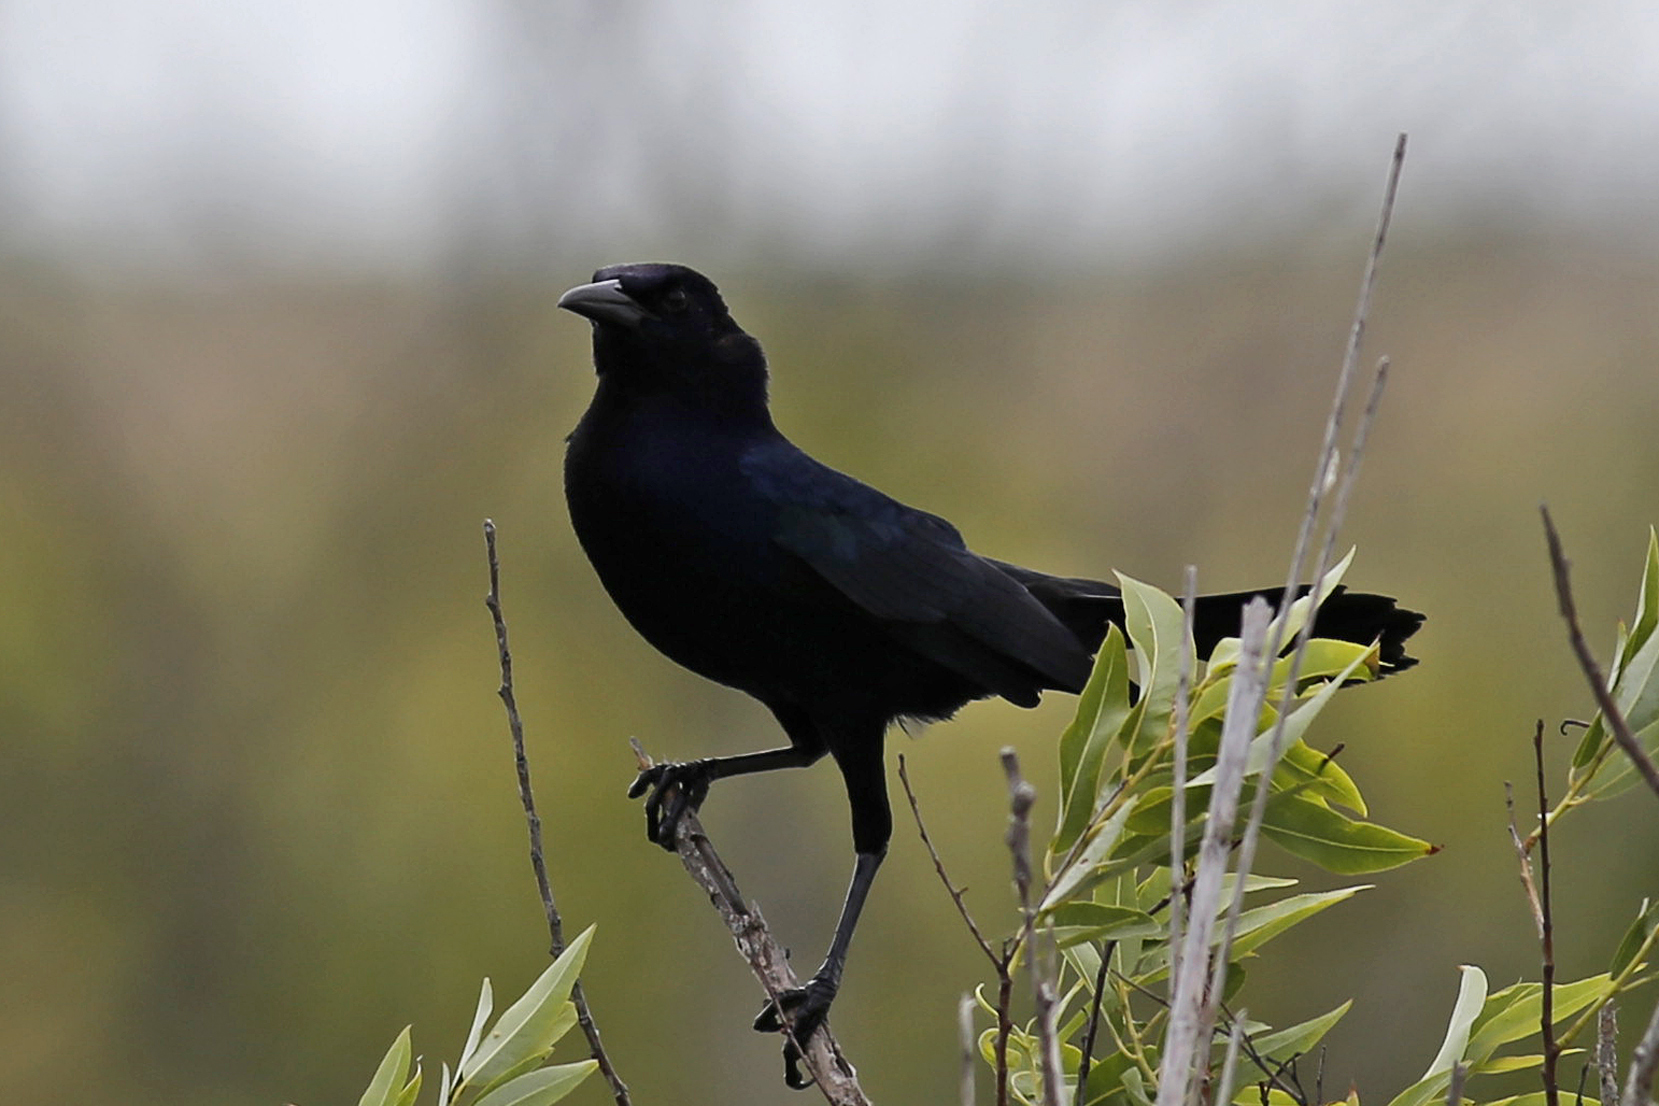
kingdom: Animalia
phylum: Chordata
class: Aves
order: Passeriformes
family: Icteridae
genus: Quiscalus
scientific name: Quiscalus major
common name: Boat-tailed grackle
